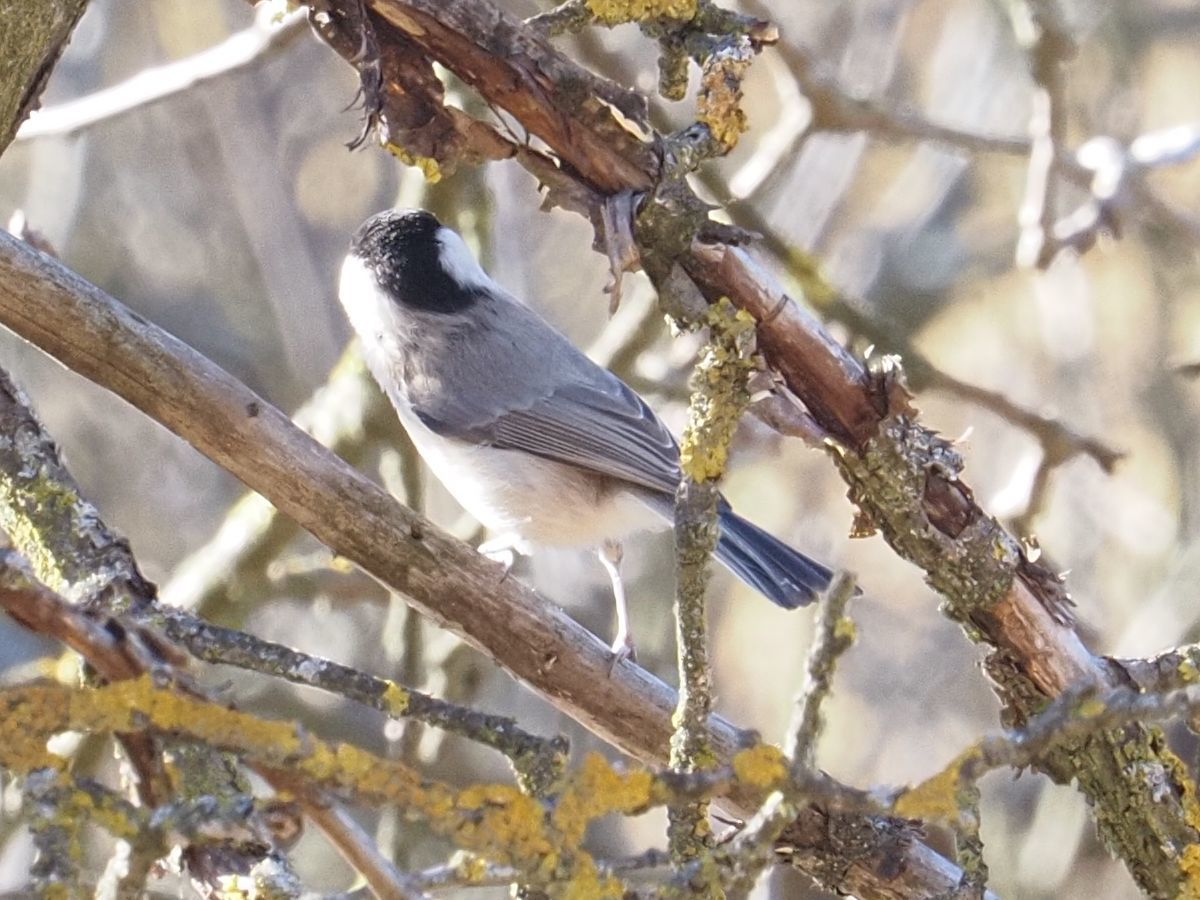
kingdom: Animalia
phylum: Chordata
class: Aves
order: Passeriformes
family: Paridae
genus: Poecile
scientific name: Poecile palustris
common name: Marsh tit
